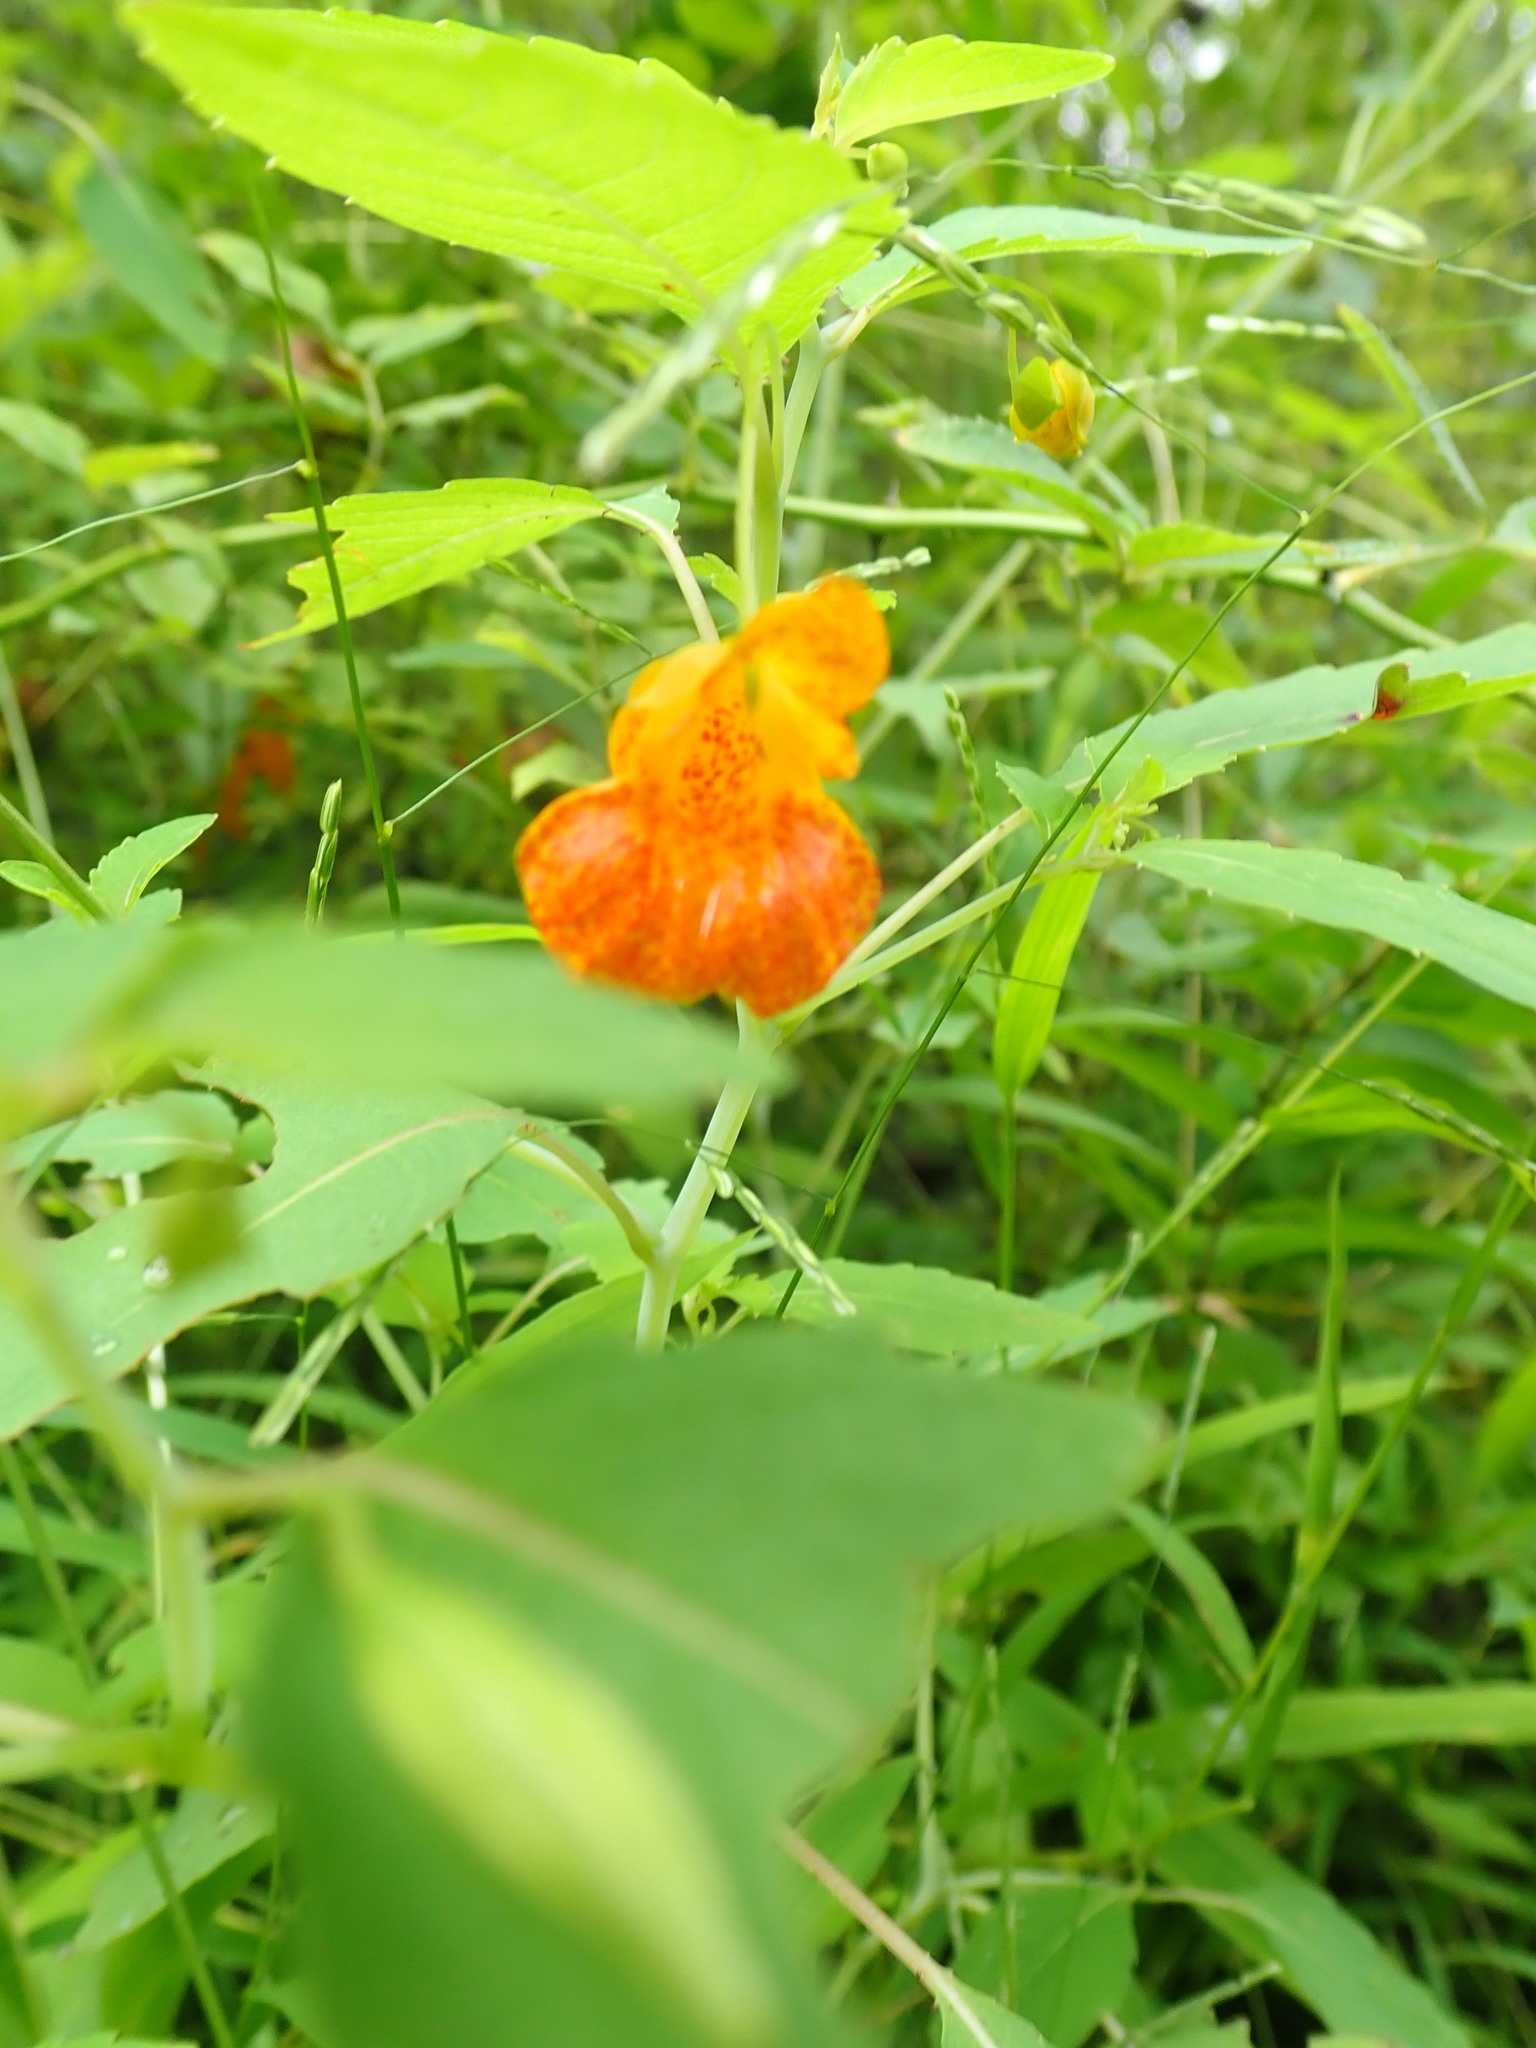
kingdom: Plantae
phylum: Tracheophyta
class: Magnoliopsida
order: Ericales
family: Balsaminaceae
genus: Impatiens
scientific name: Impatiens capensis
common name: Orange balsam
